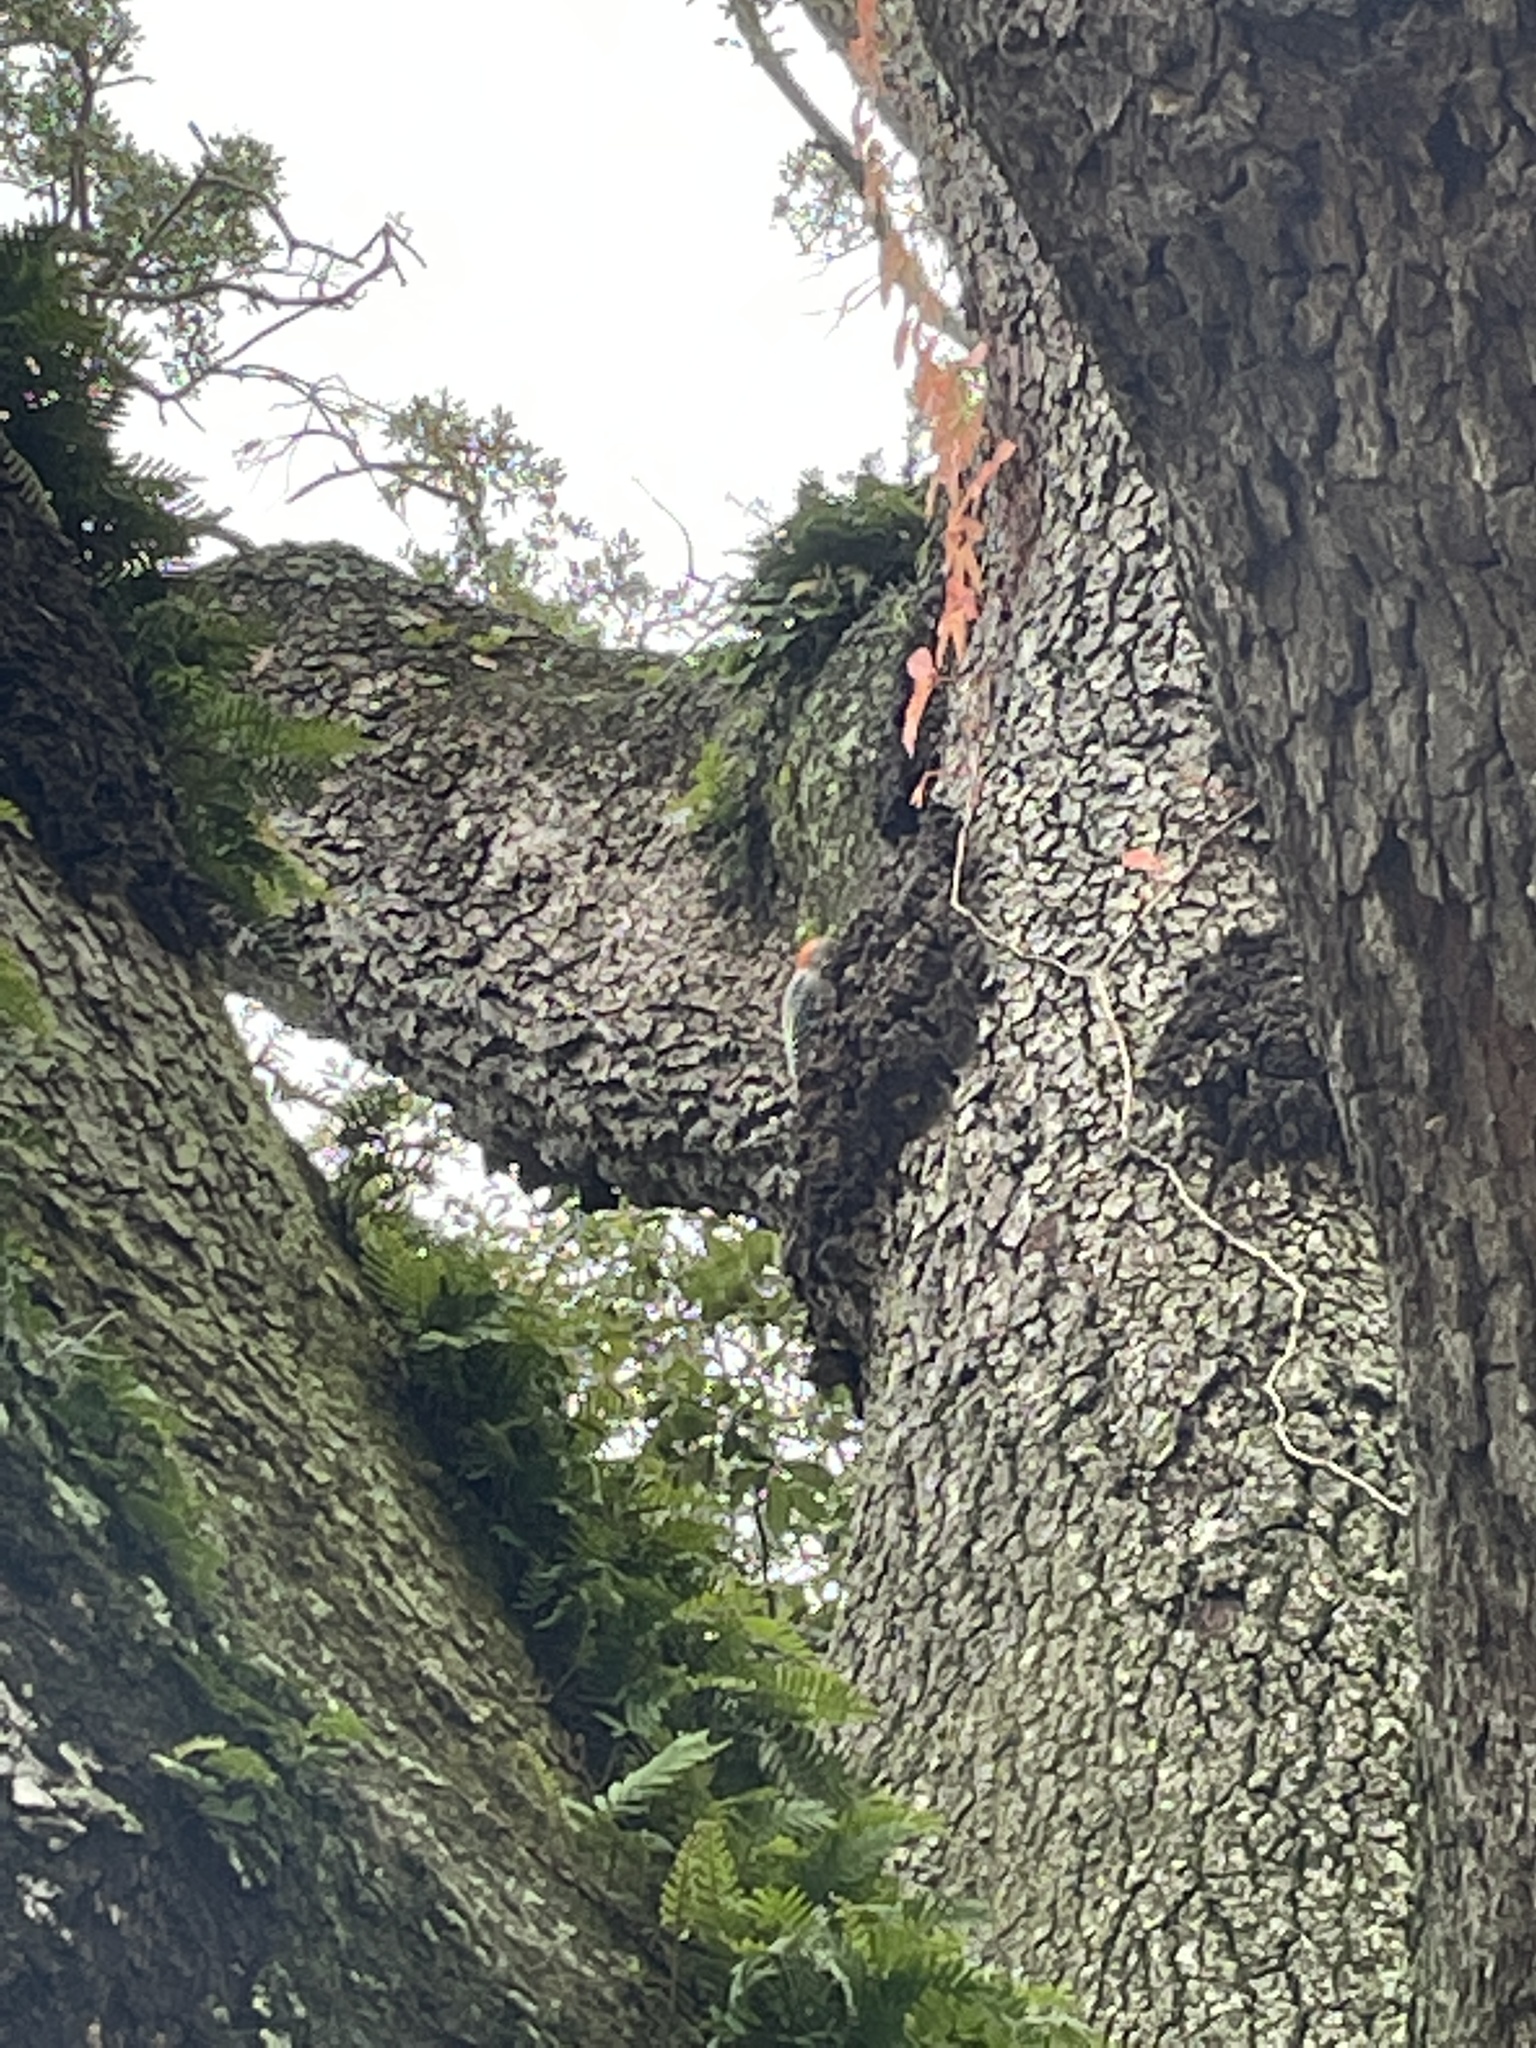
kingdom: Animalia
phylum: Chordata
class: Aves
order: Piciformes
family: Picidae
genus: Melanerpes
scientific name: Melanerpes carolinus
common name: Red-bellied woodpecker
